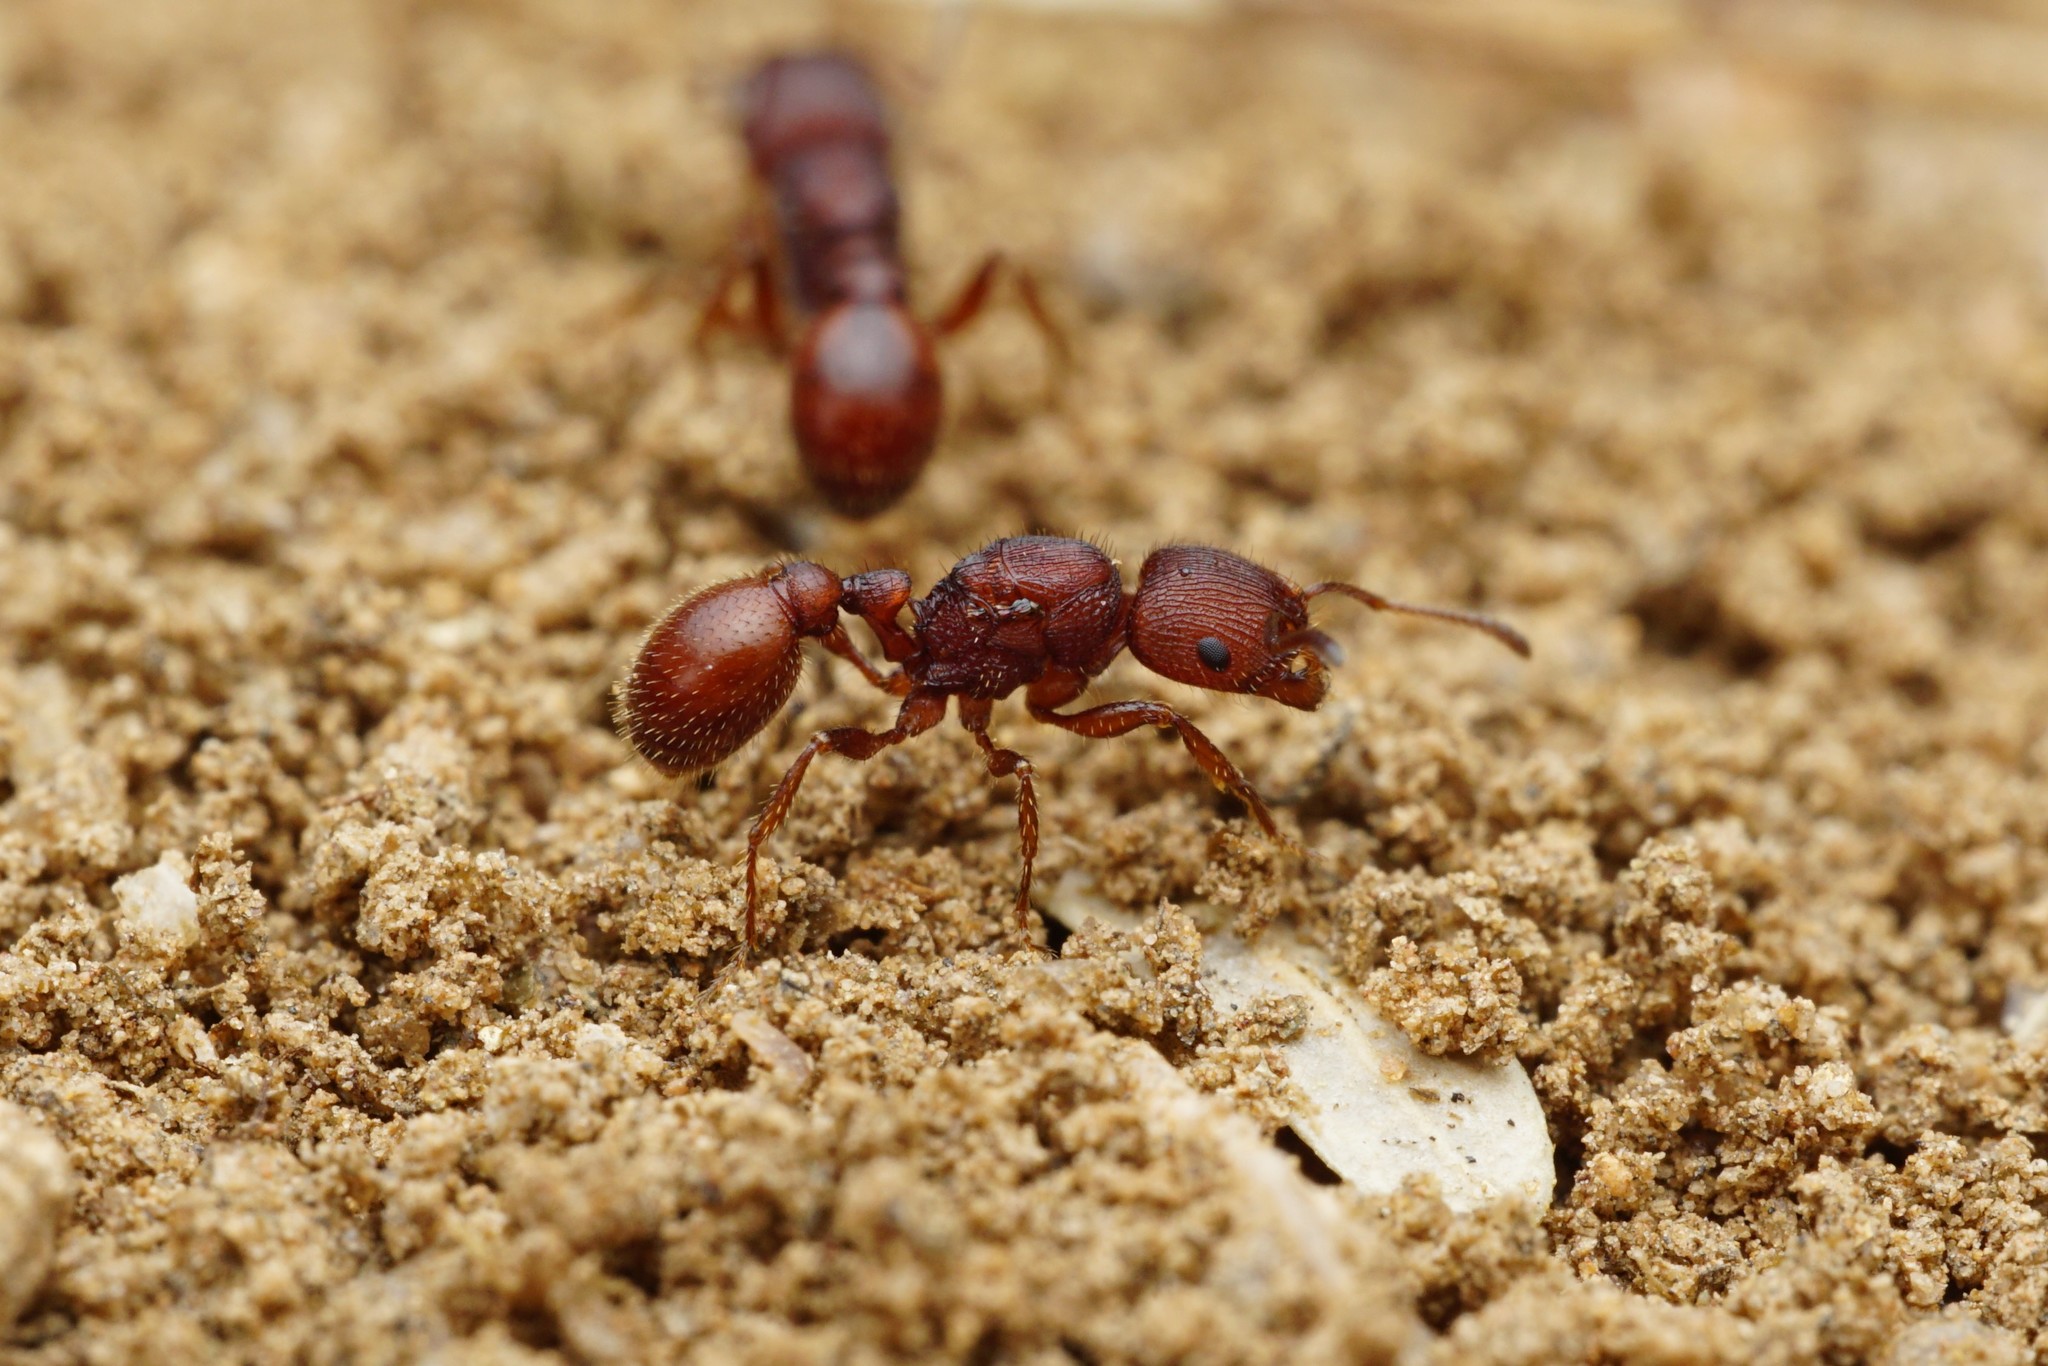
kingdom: Animalia
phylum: Arthropoda
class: Insecta
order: Hymenoptera
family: Formicidae
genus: Pogonomyrmex
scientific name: Pogonomyrmex pima
